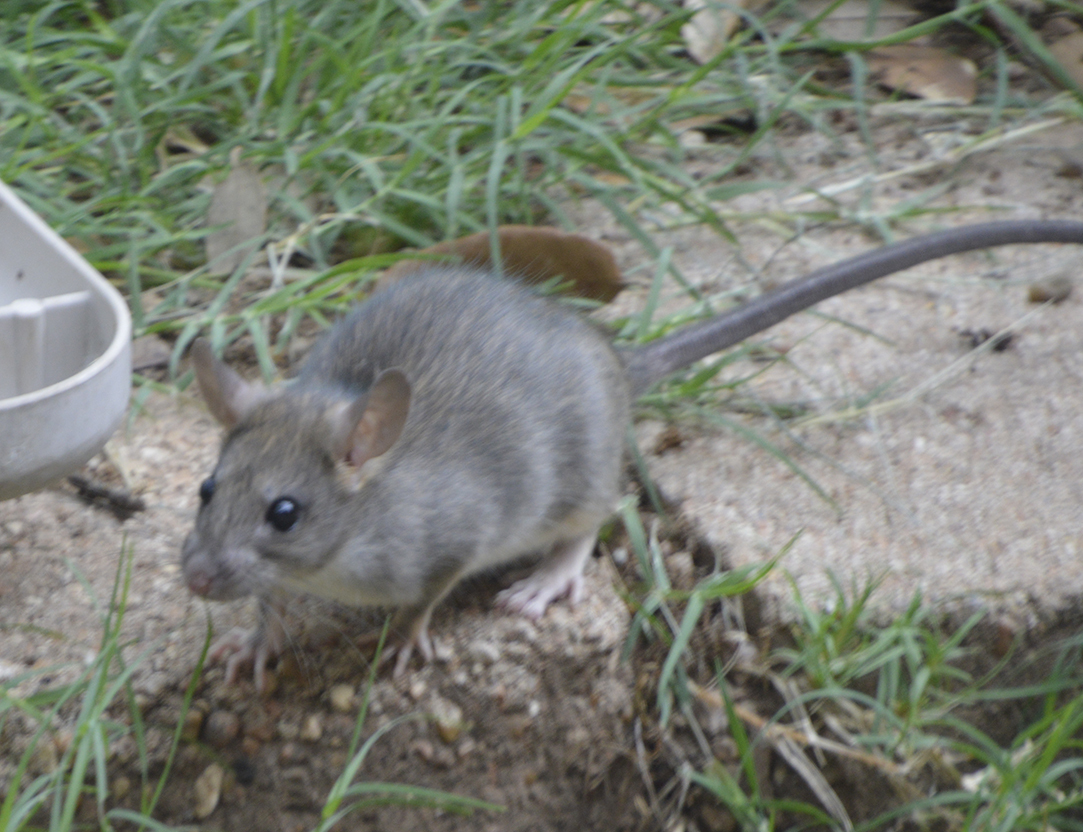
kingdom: Animalia
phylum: Chordata
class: Mammalia
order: Rodentia
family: Muridae
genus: Rattus
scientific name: Rattus rattus
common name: Black rat
